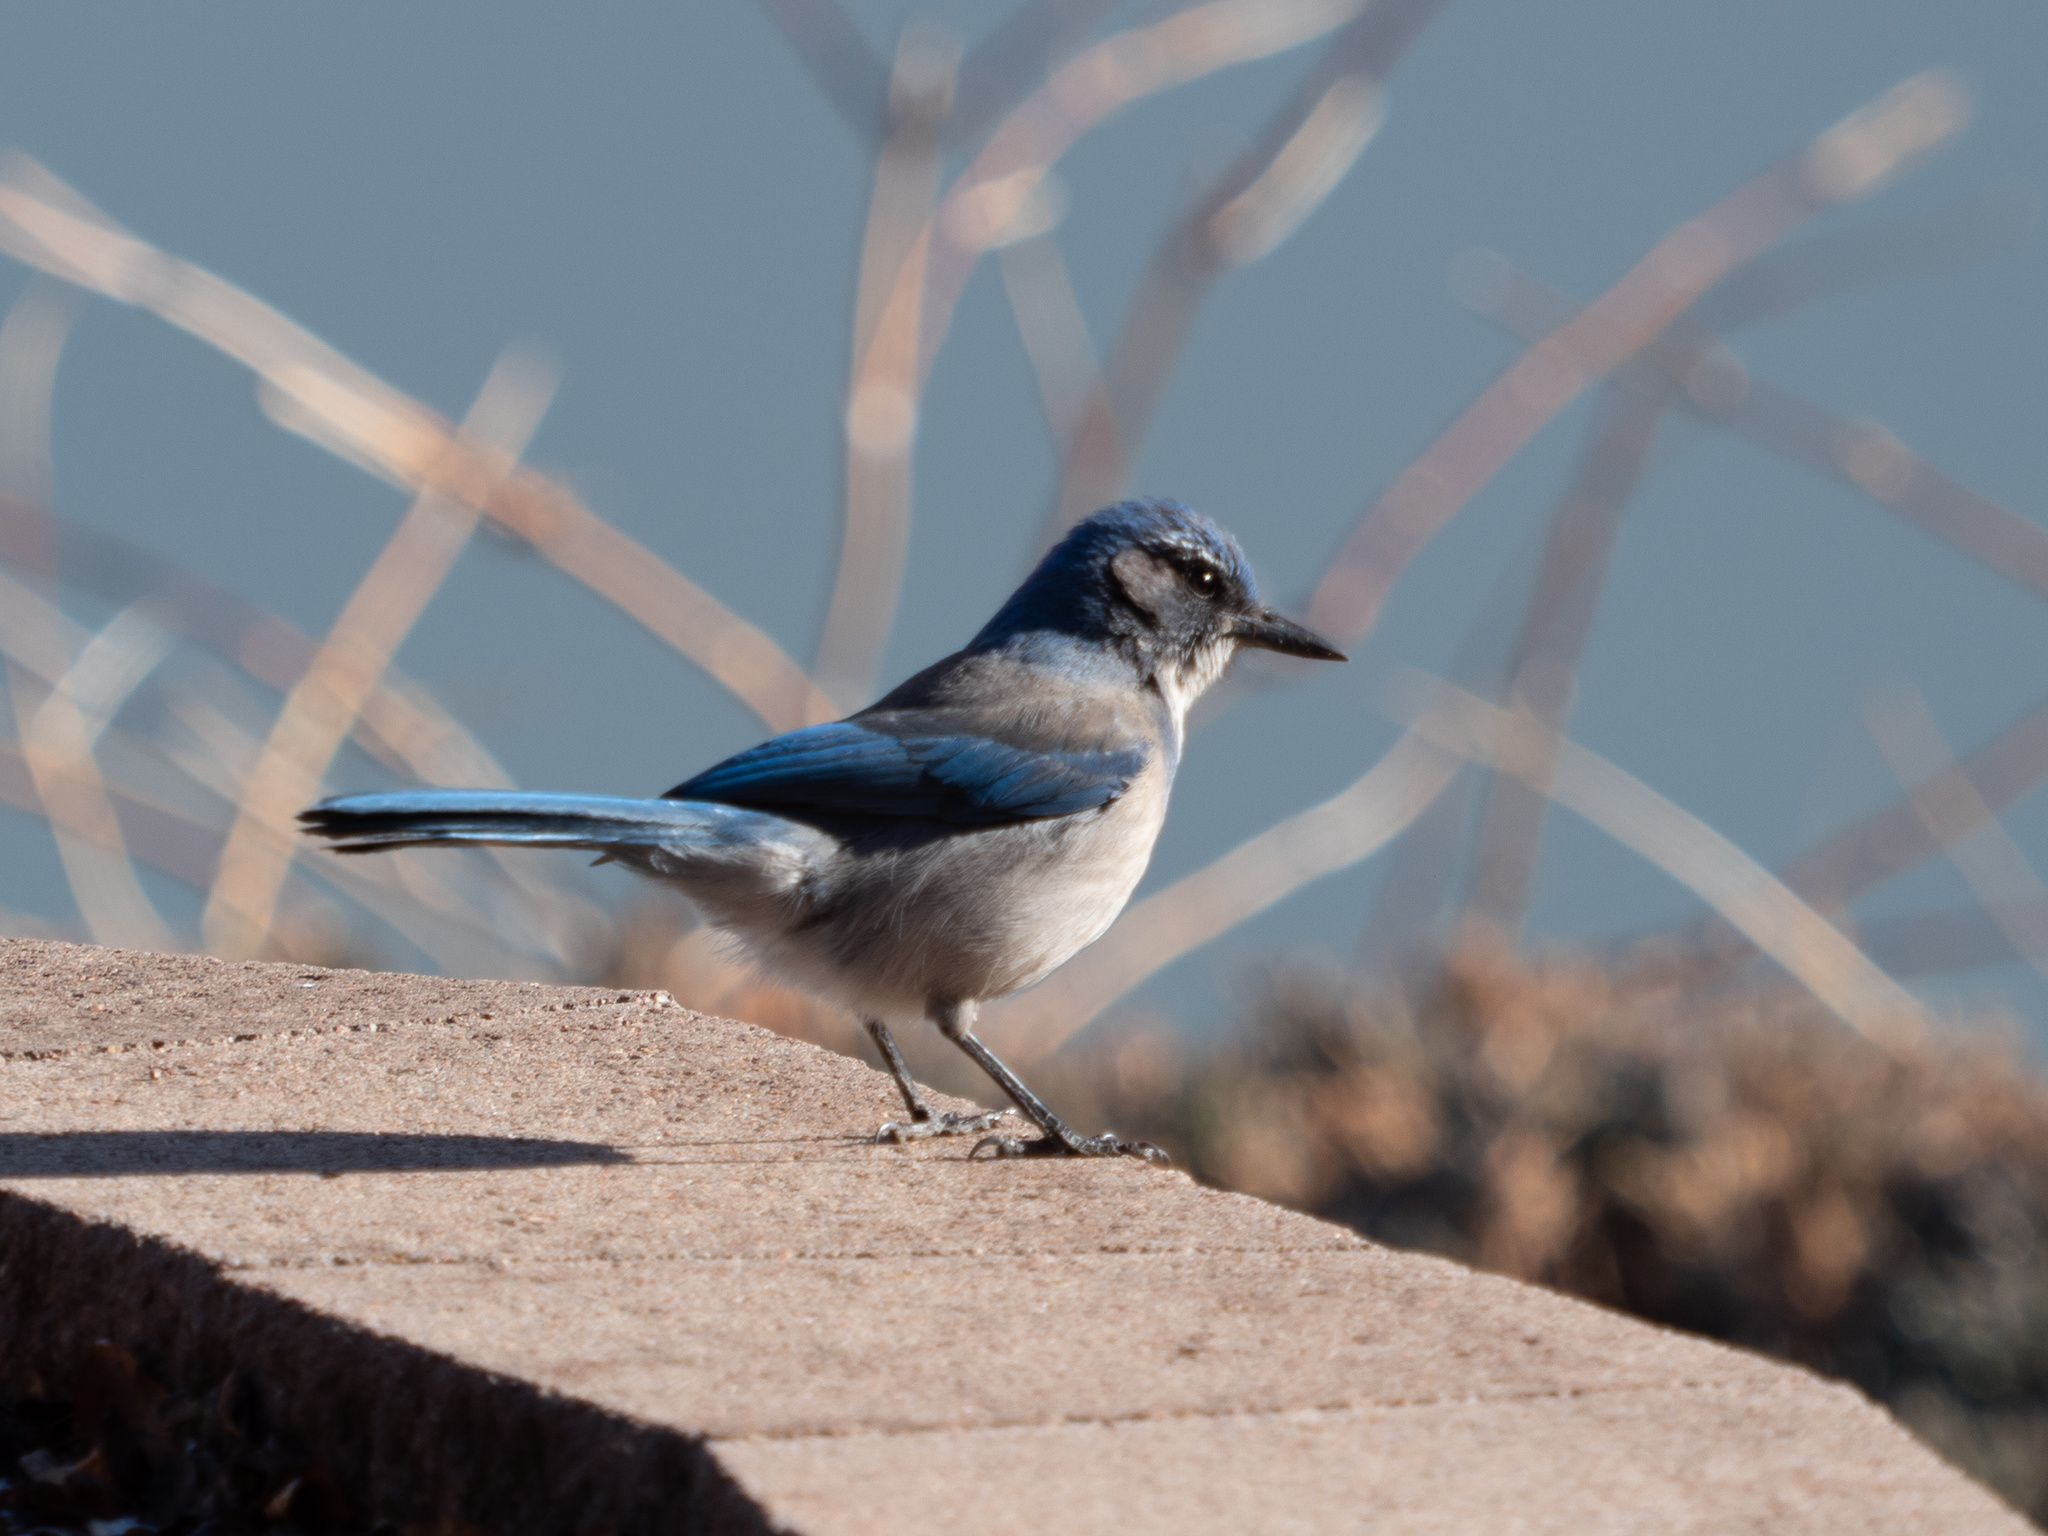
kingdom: Animalia
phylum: Chordata
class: Aves
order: Passeriformes
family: Corvidae
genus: Aphelocoma
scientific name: Aphelocoma woodhouseii
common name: Woodhouse's scrub-jay
